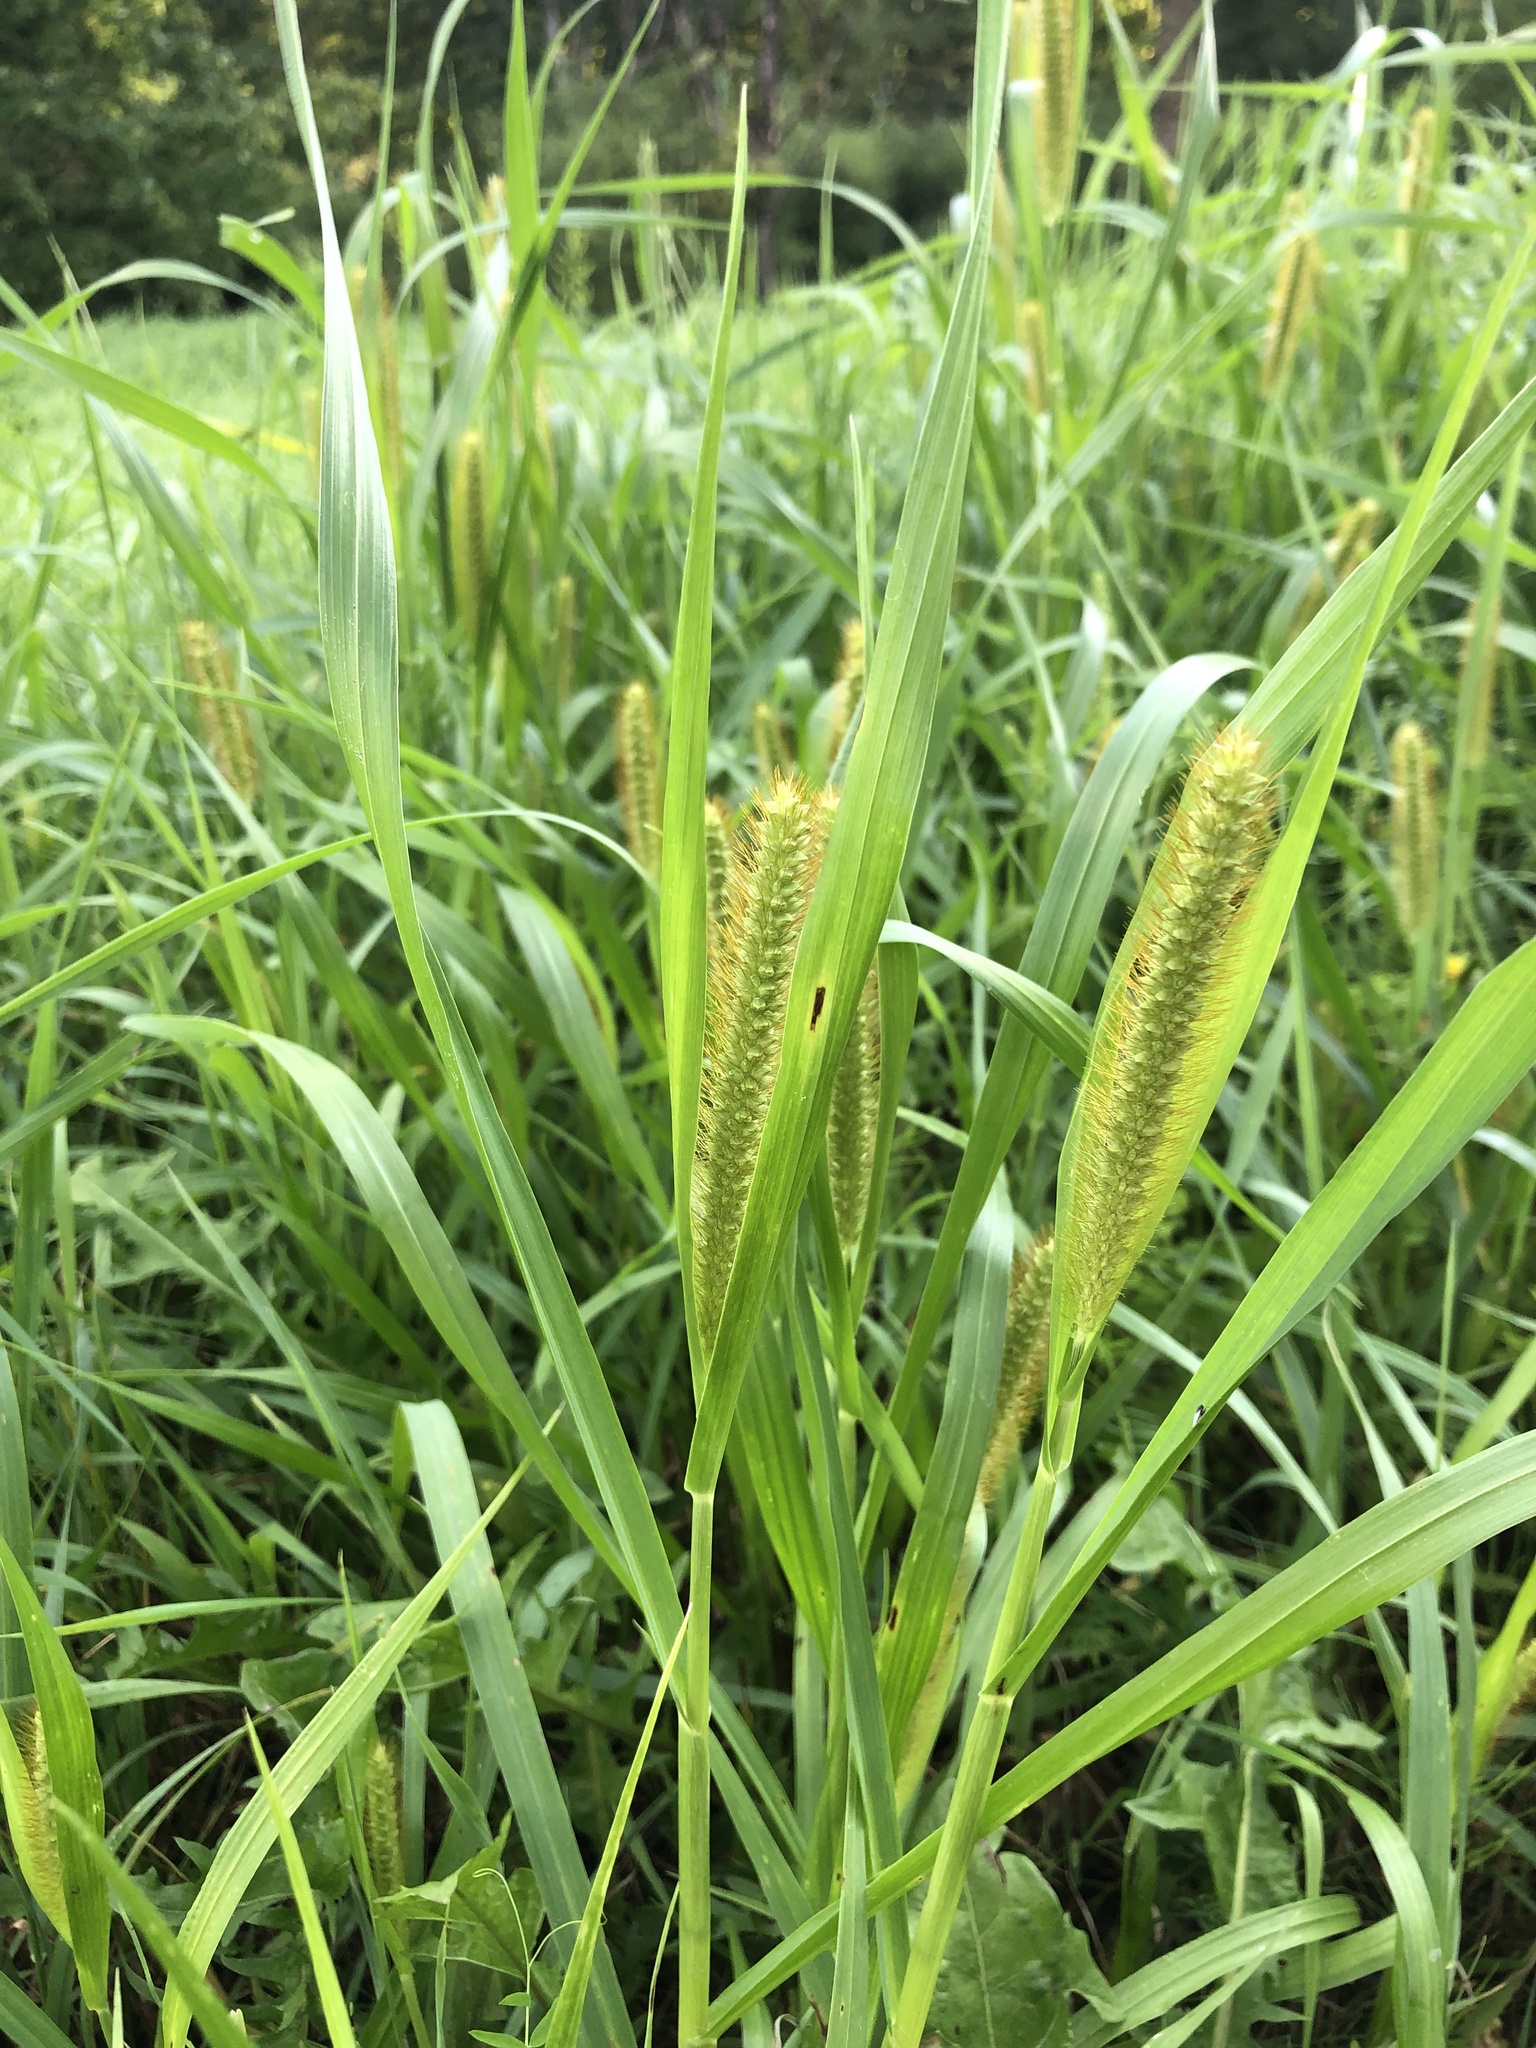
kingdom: Plantae
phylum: Tracheophyta
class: Liliopsida
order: Poales
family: Poaceae
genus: Setaria
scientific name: Setaria pumila
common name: Yellow bristle-grass
